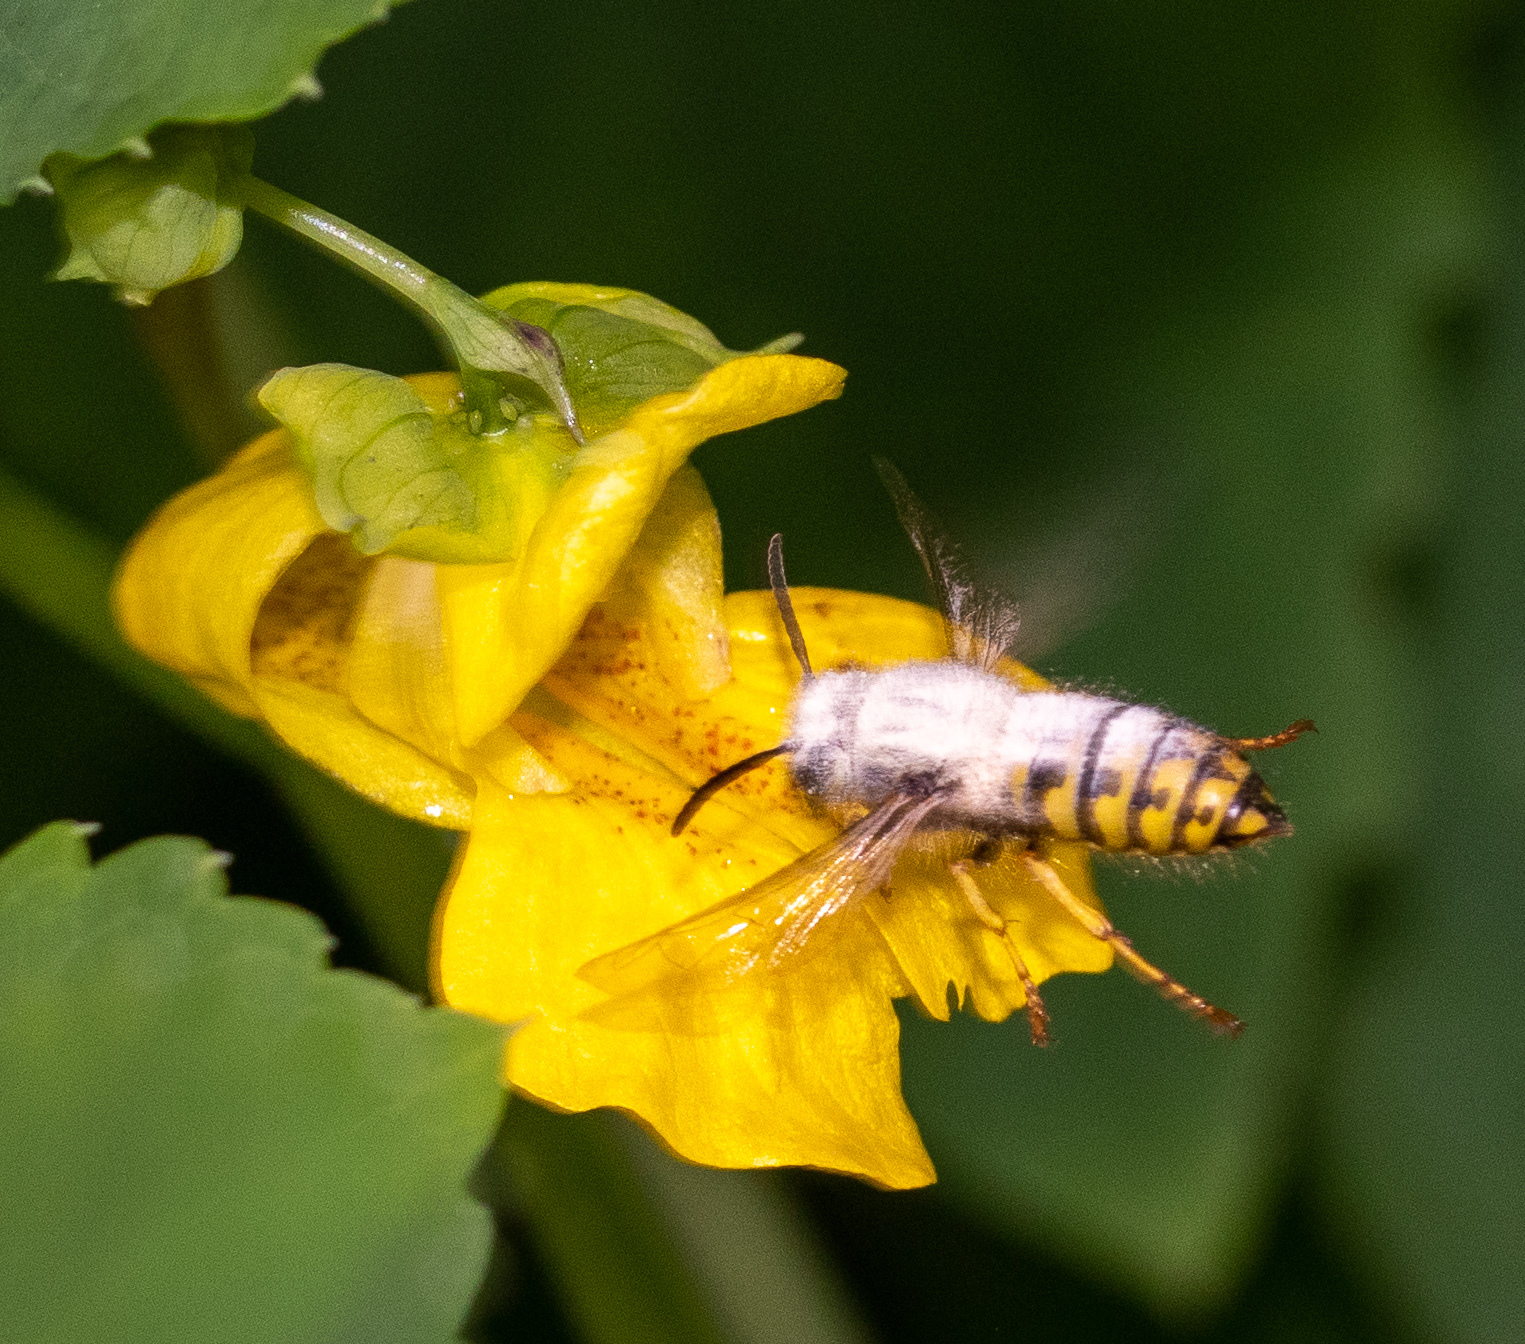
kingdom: Animalia
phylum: Arthropoda
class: Insecta
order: Hymenoptera
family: Vespidae
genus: Dolichovespula
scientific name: Dolichovespula arenaria
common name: Aerial yellowjacket
